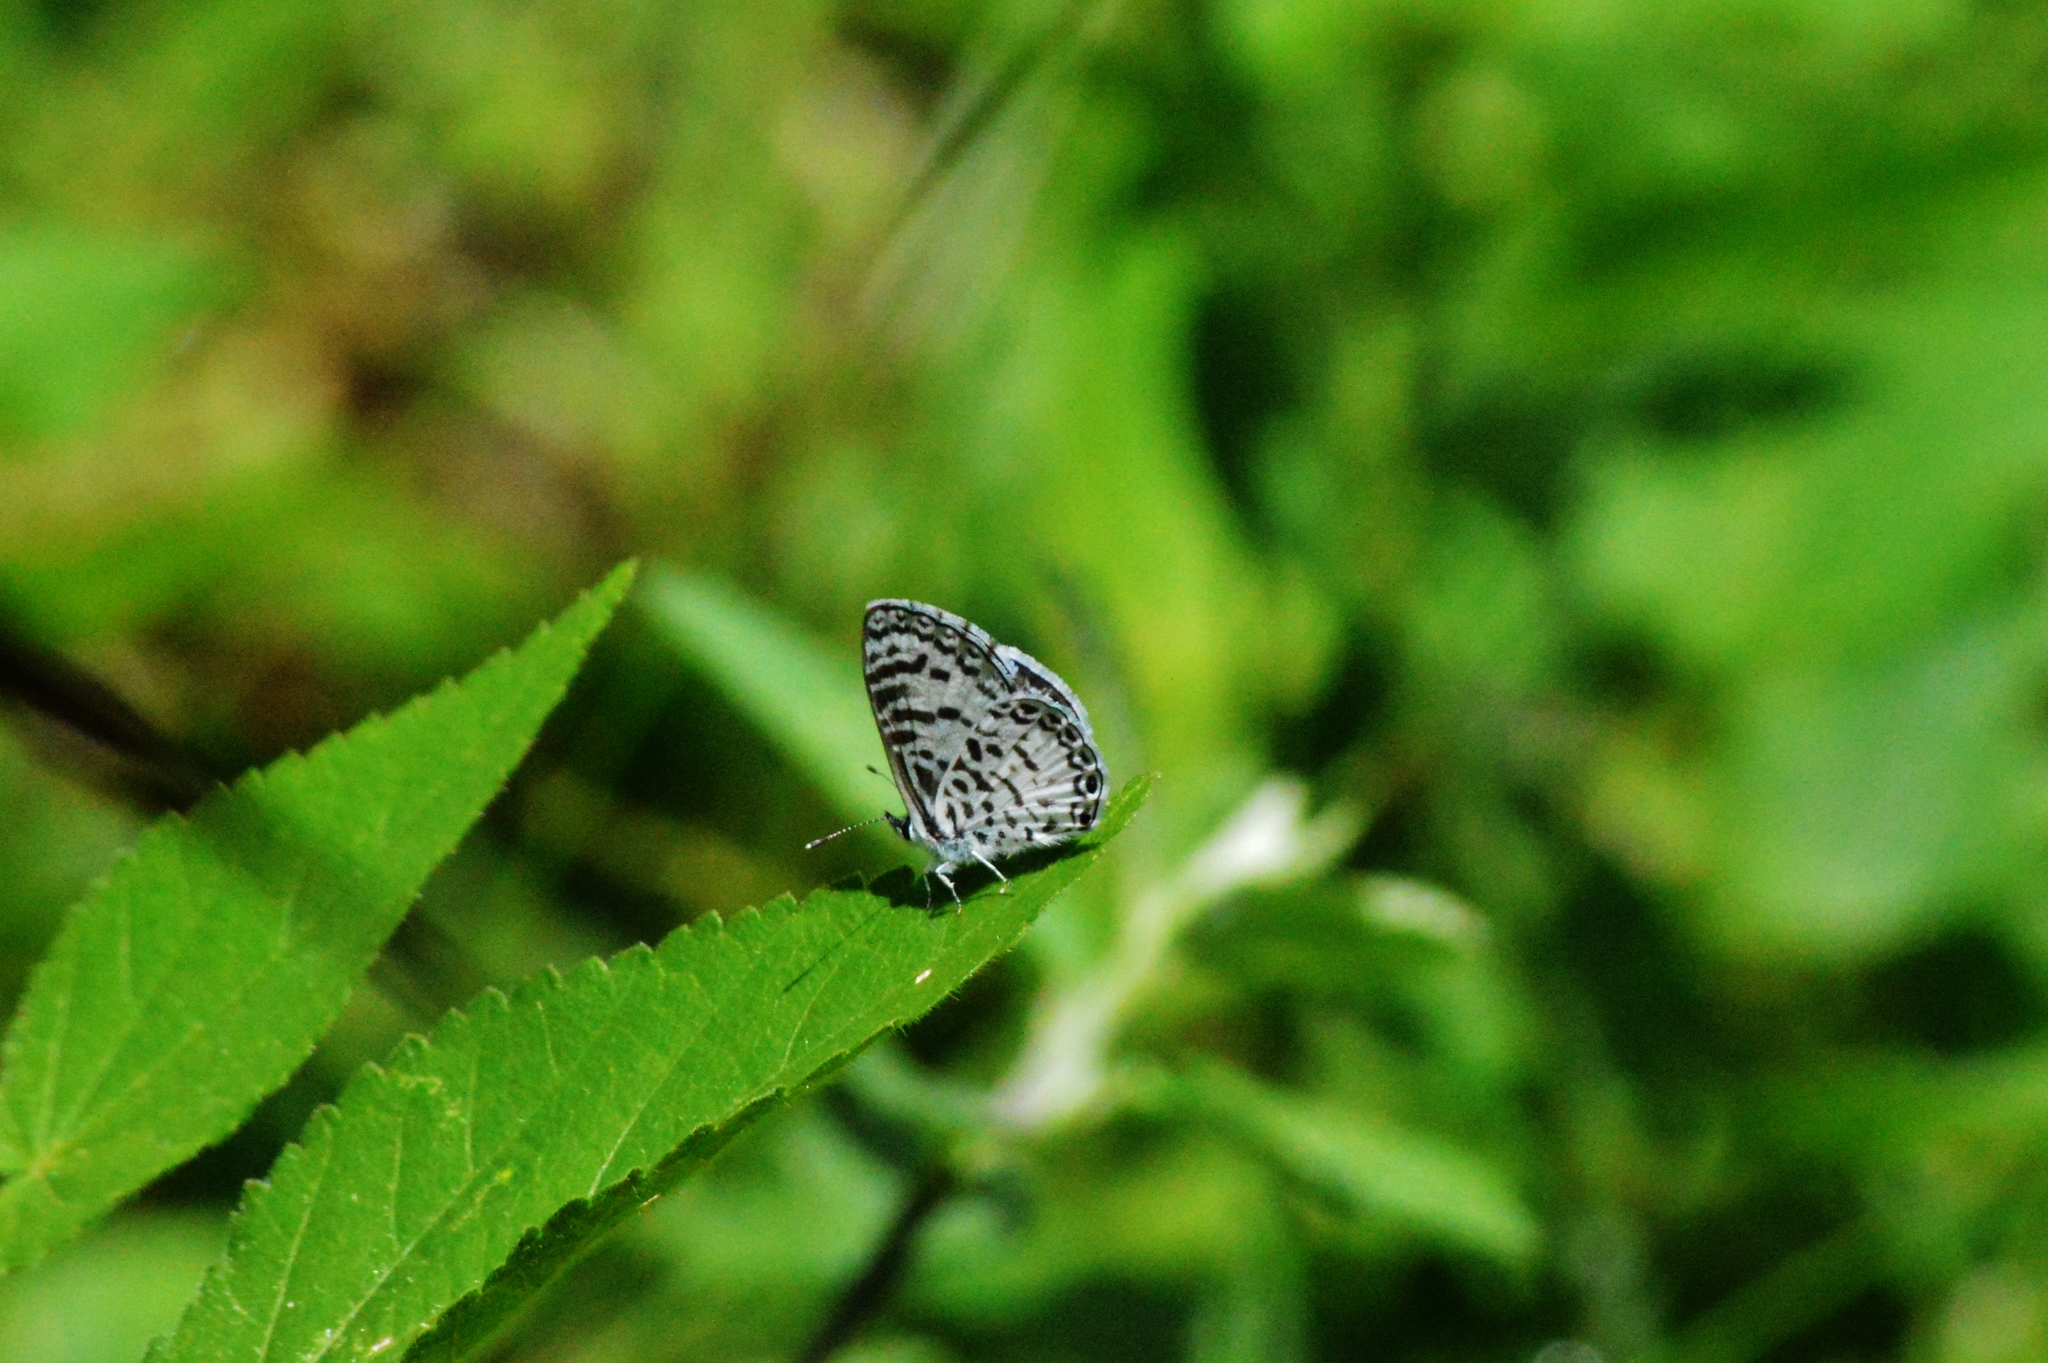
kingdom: Animalia
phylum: Arthropoda
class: Insecta
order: Lepidoptera
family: Lycaenidae
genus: Leptotes
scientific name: Leptotes cassius
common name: Cassius blue
